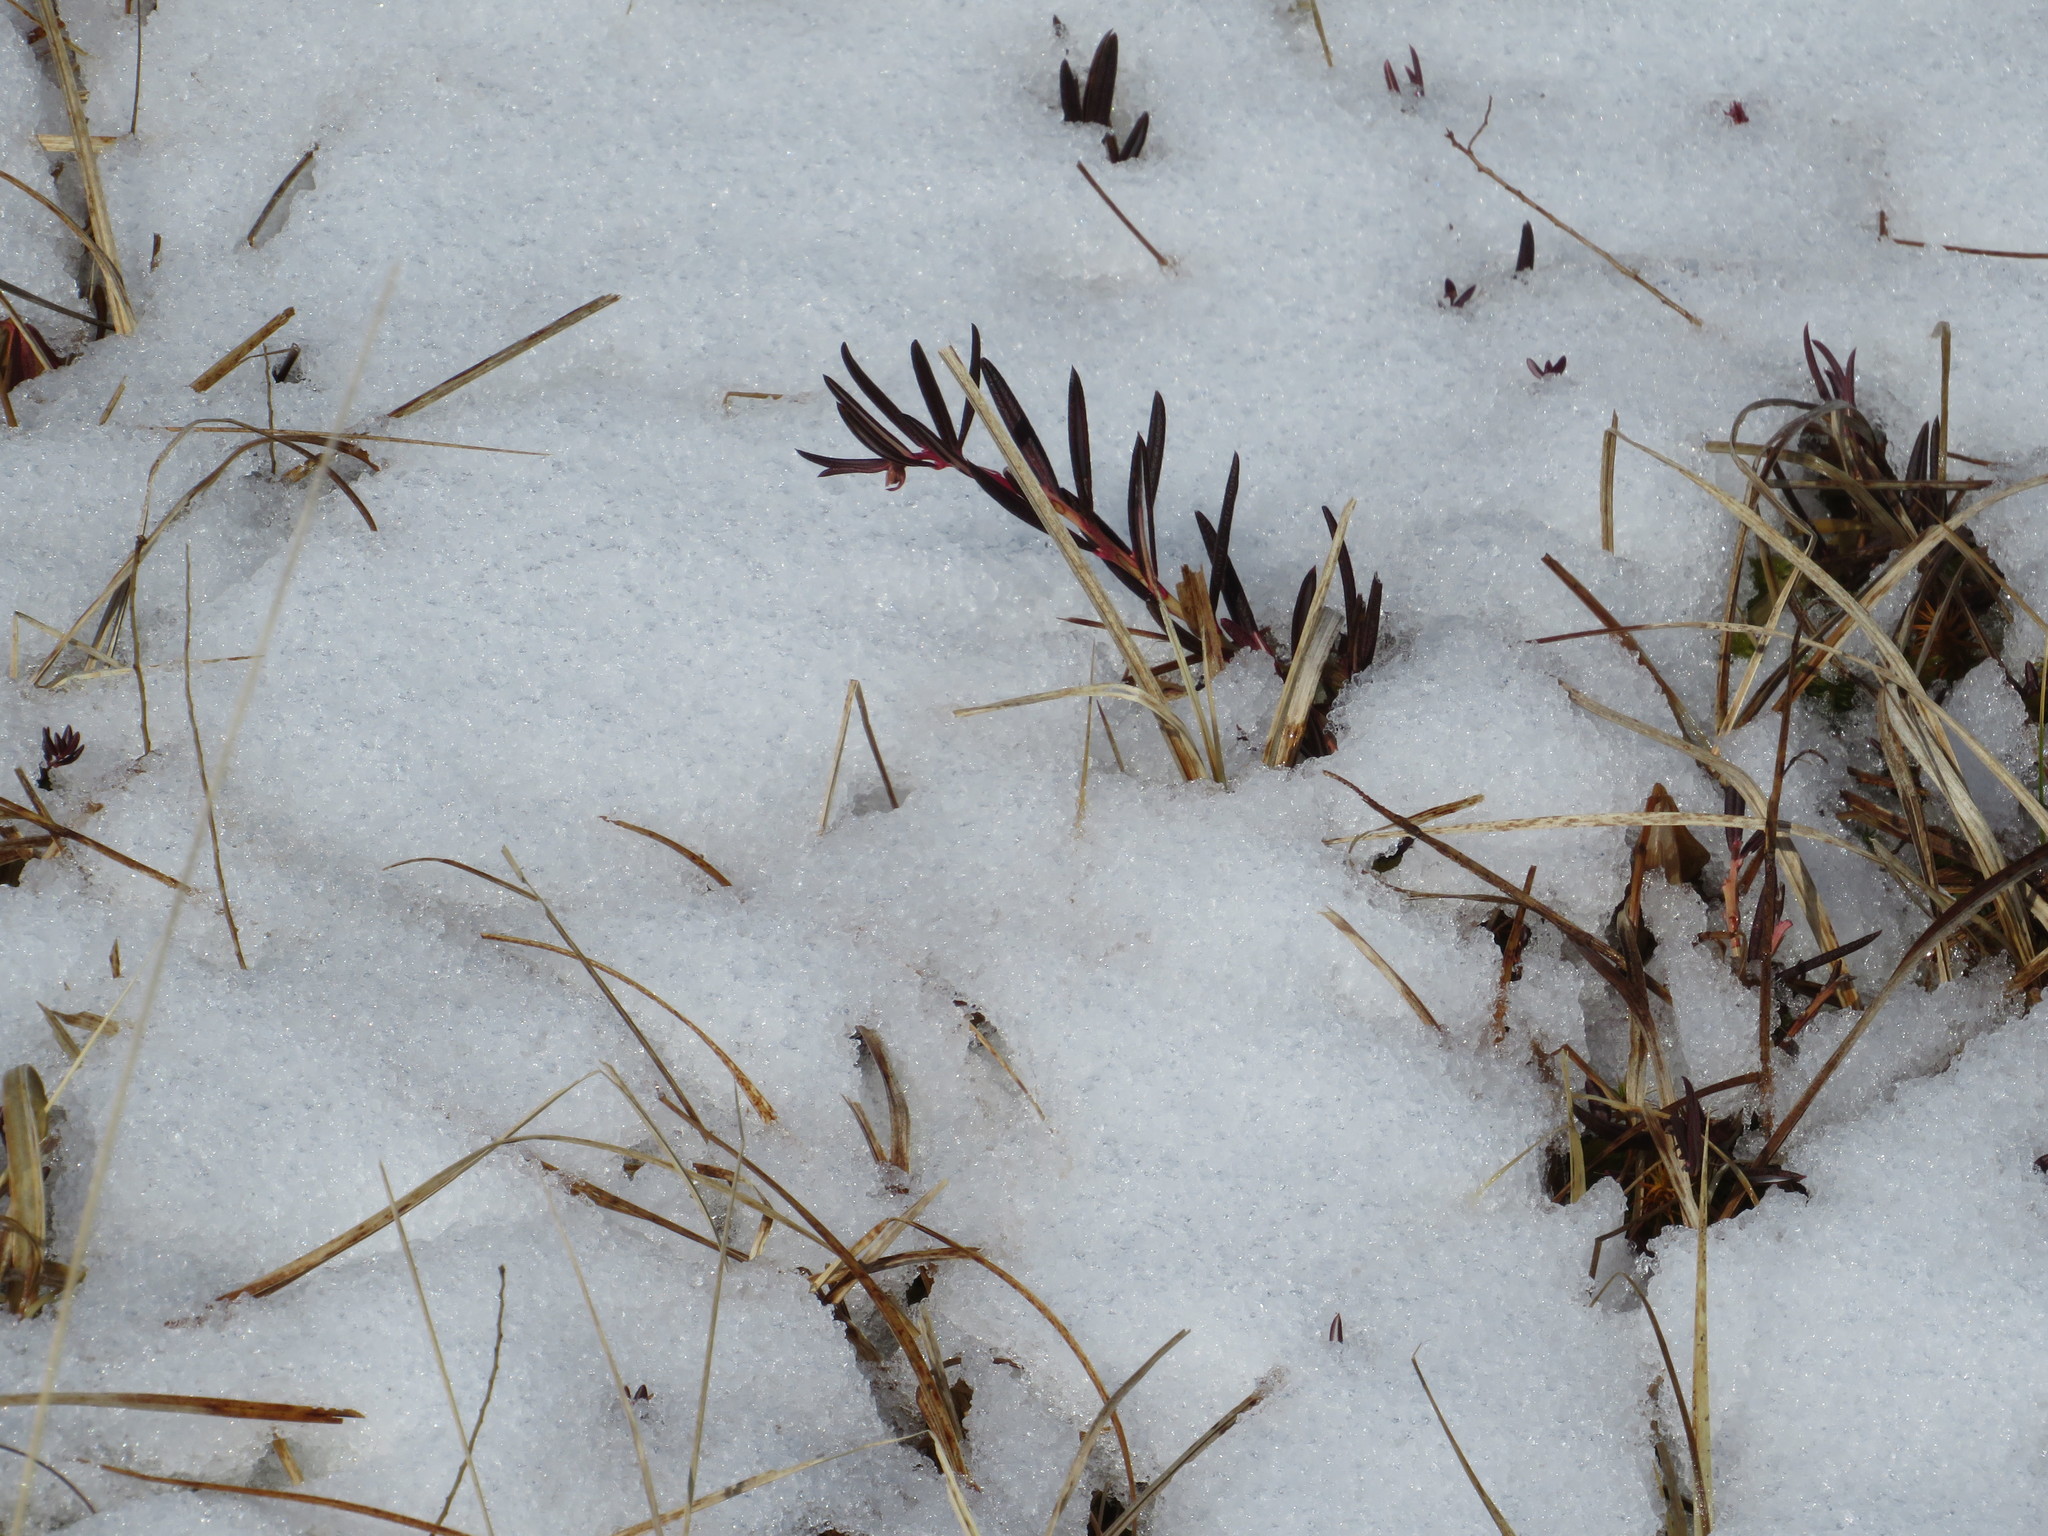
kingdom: Plantae
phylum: Tracheophyta
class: Magnoliopsida
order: Ericales
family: Ericaceae
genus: Andromeda
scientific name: Andromeda polifolia
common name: Bog-rosemary
